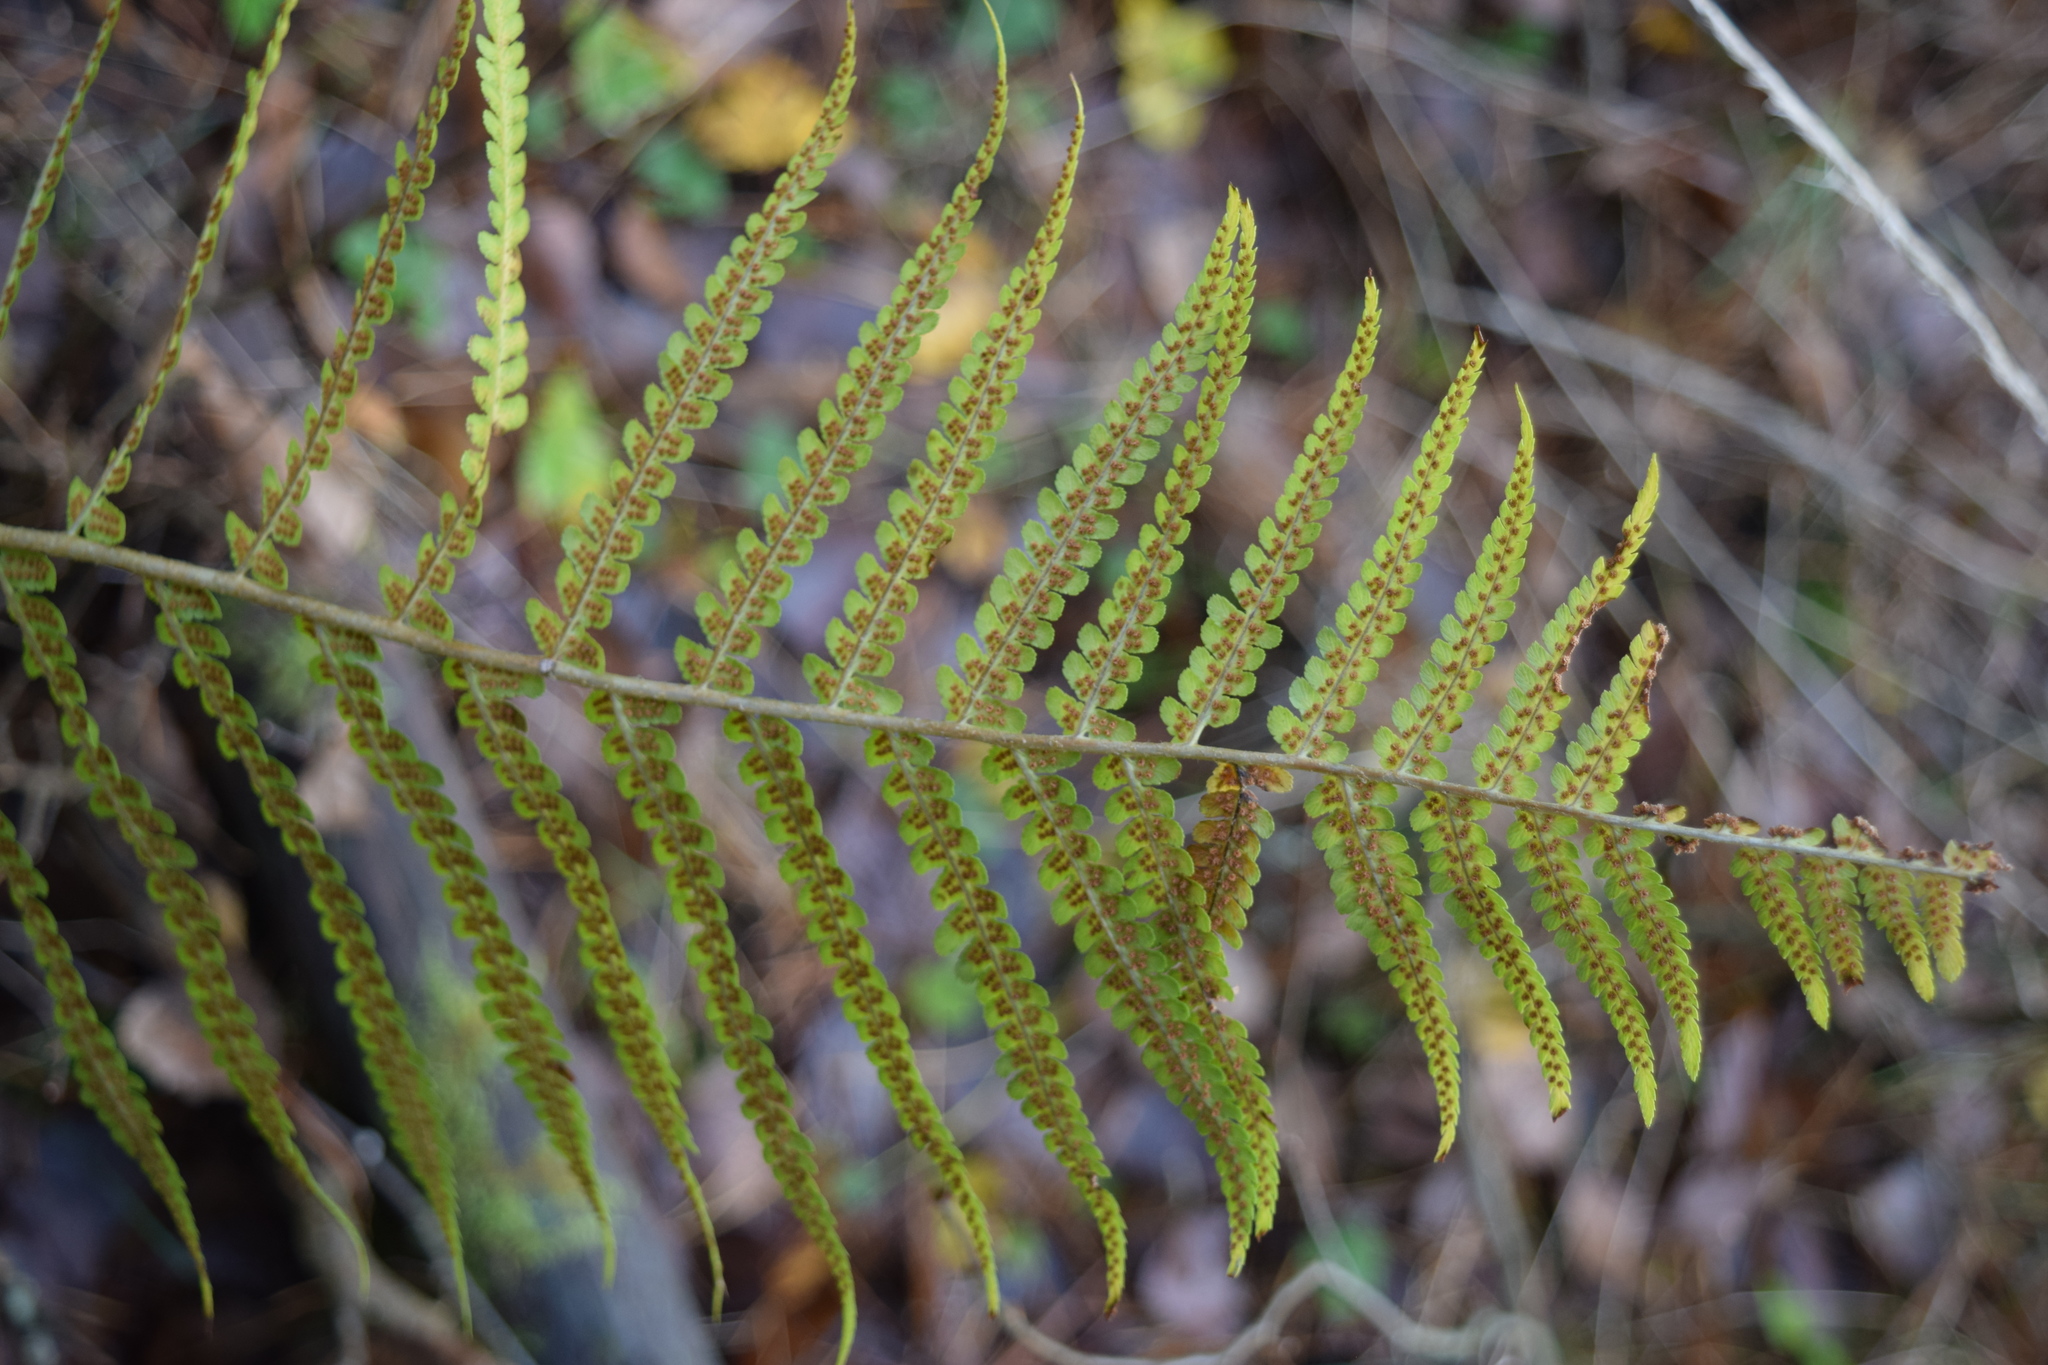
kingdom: Plantae
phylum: Tracheophyta
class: Polypodiopsida
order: Polypodiales
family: Dryopteridaceae
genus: Dryopteris
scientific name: Dryopteris filix-mas
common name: Male fern
